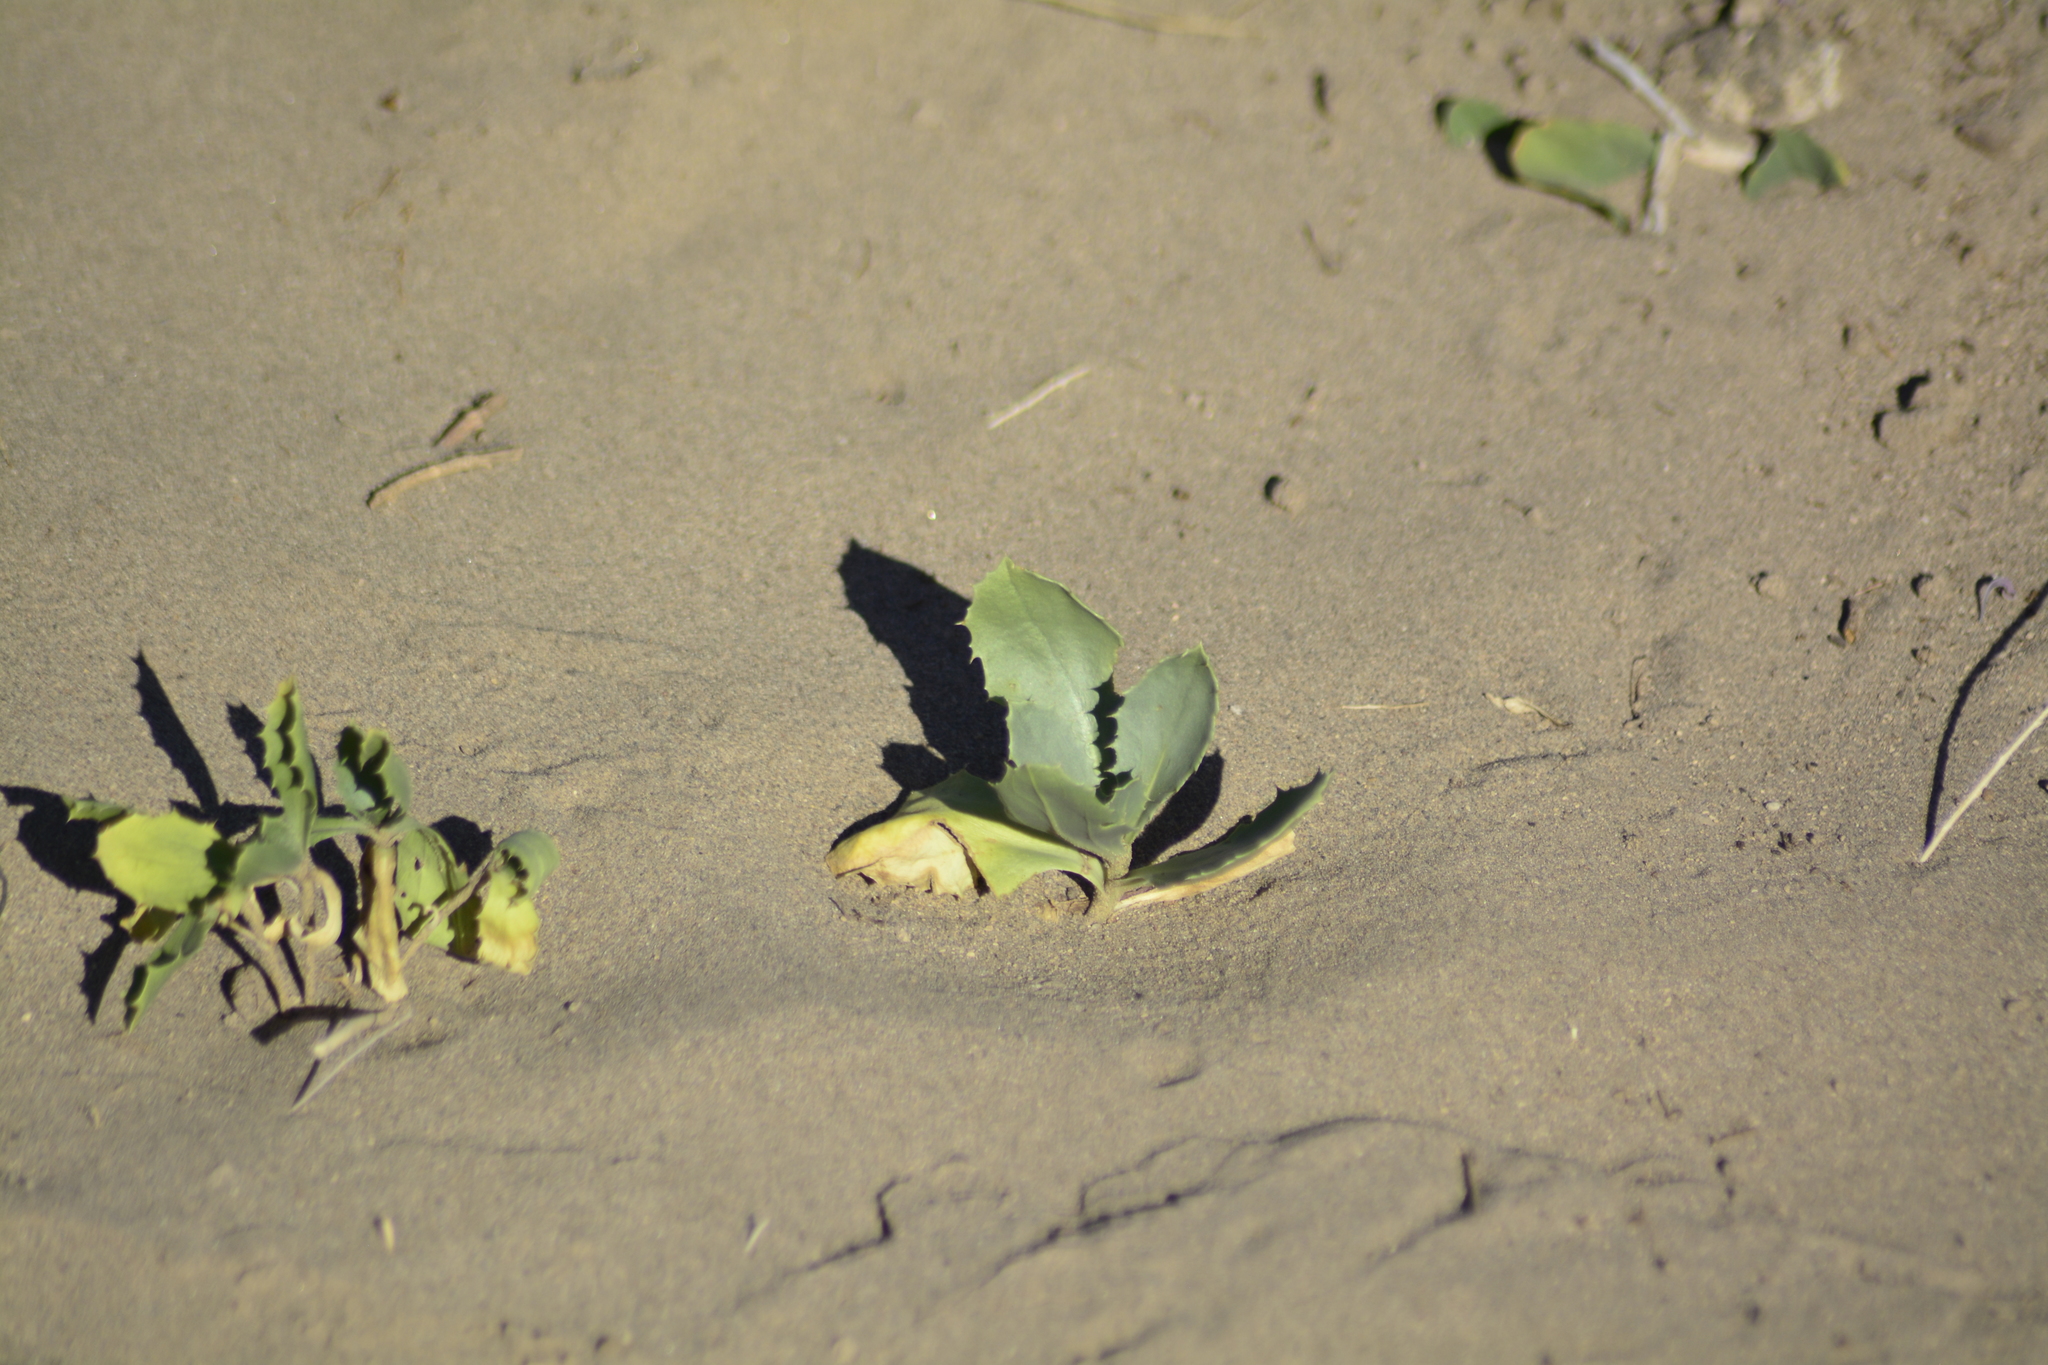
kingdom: Plantae
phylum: Tracheophyta
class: Magnoliopsida
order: Asterales
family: Calyceraceae
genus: Calycera
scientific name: Calycera crassifolia
